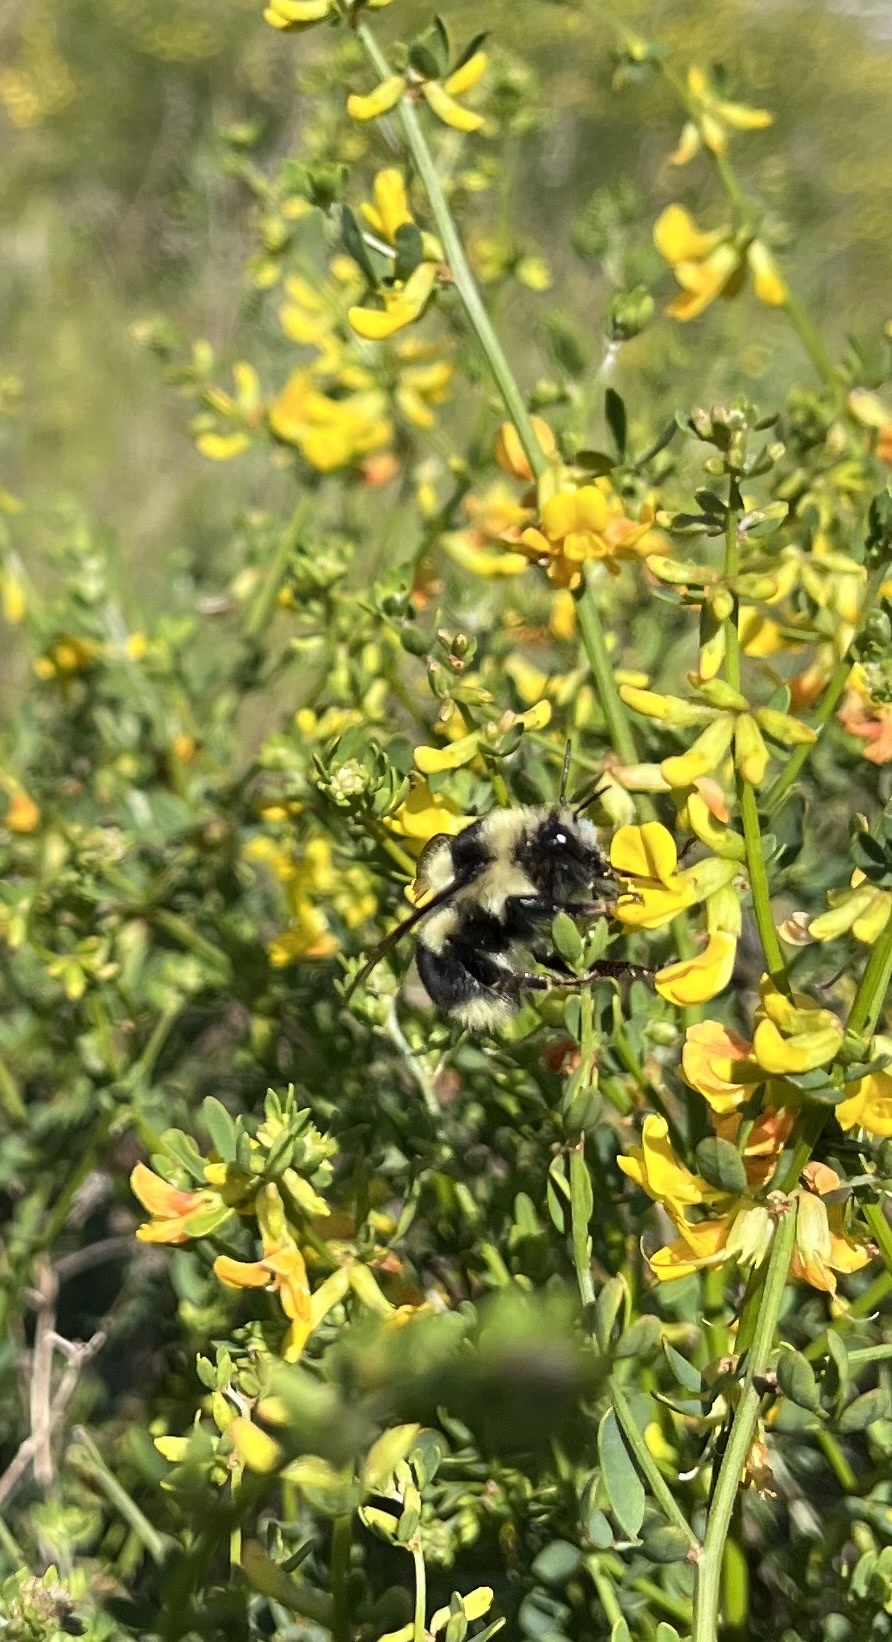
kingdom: Animalia
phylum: Arthropoda
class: Insecta
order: Hymenoptera
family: Apidae
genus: Bombus
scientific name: Bombus melanopygus
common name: Black tail bumble bee
